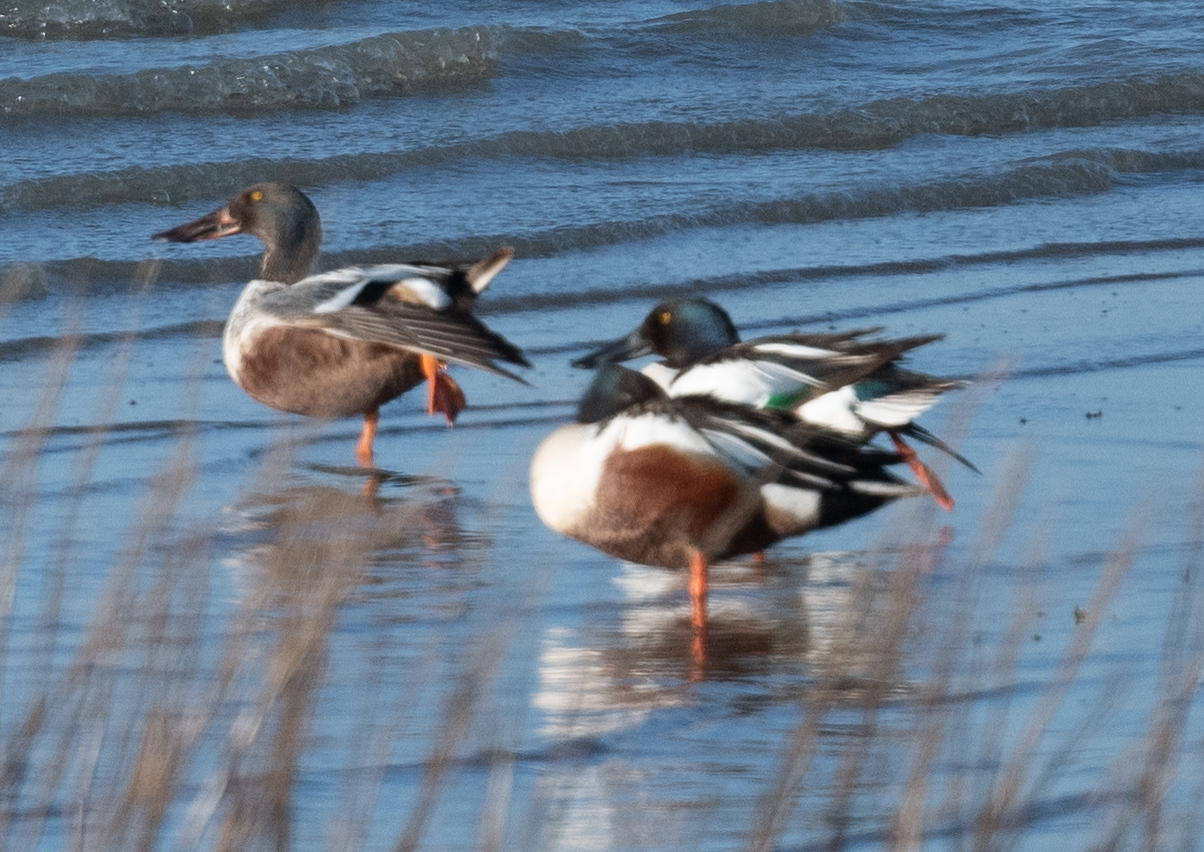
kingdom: Animalia
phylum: Chordata
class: Aves
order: Anseriformes
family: Anatidae
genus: Spatula
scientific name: Spatula clypeata
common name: Northern shoveler
